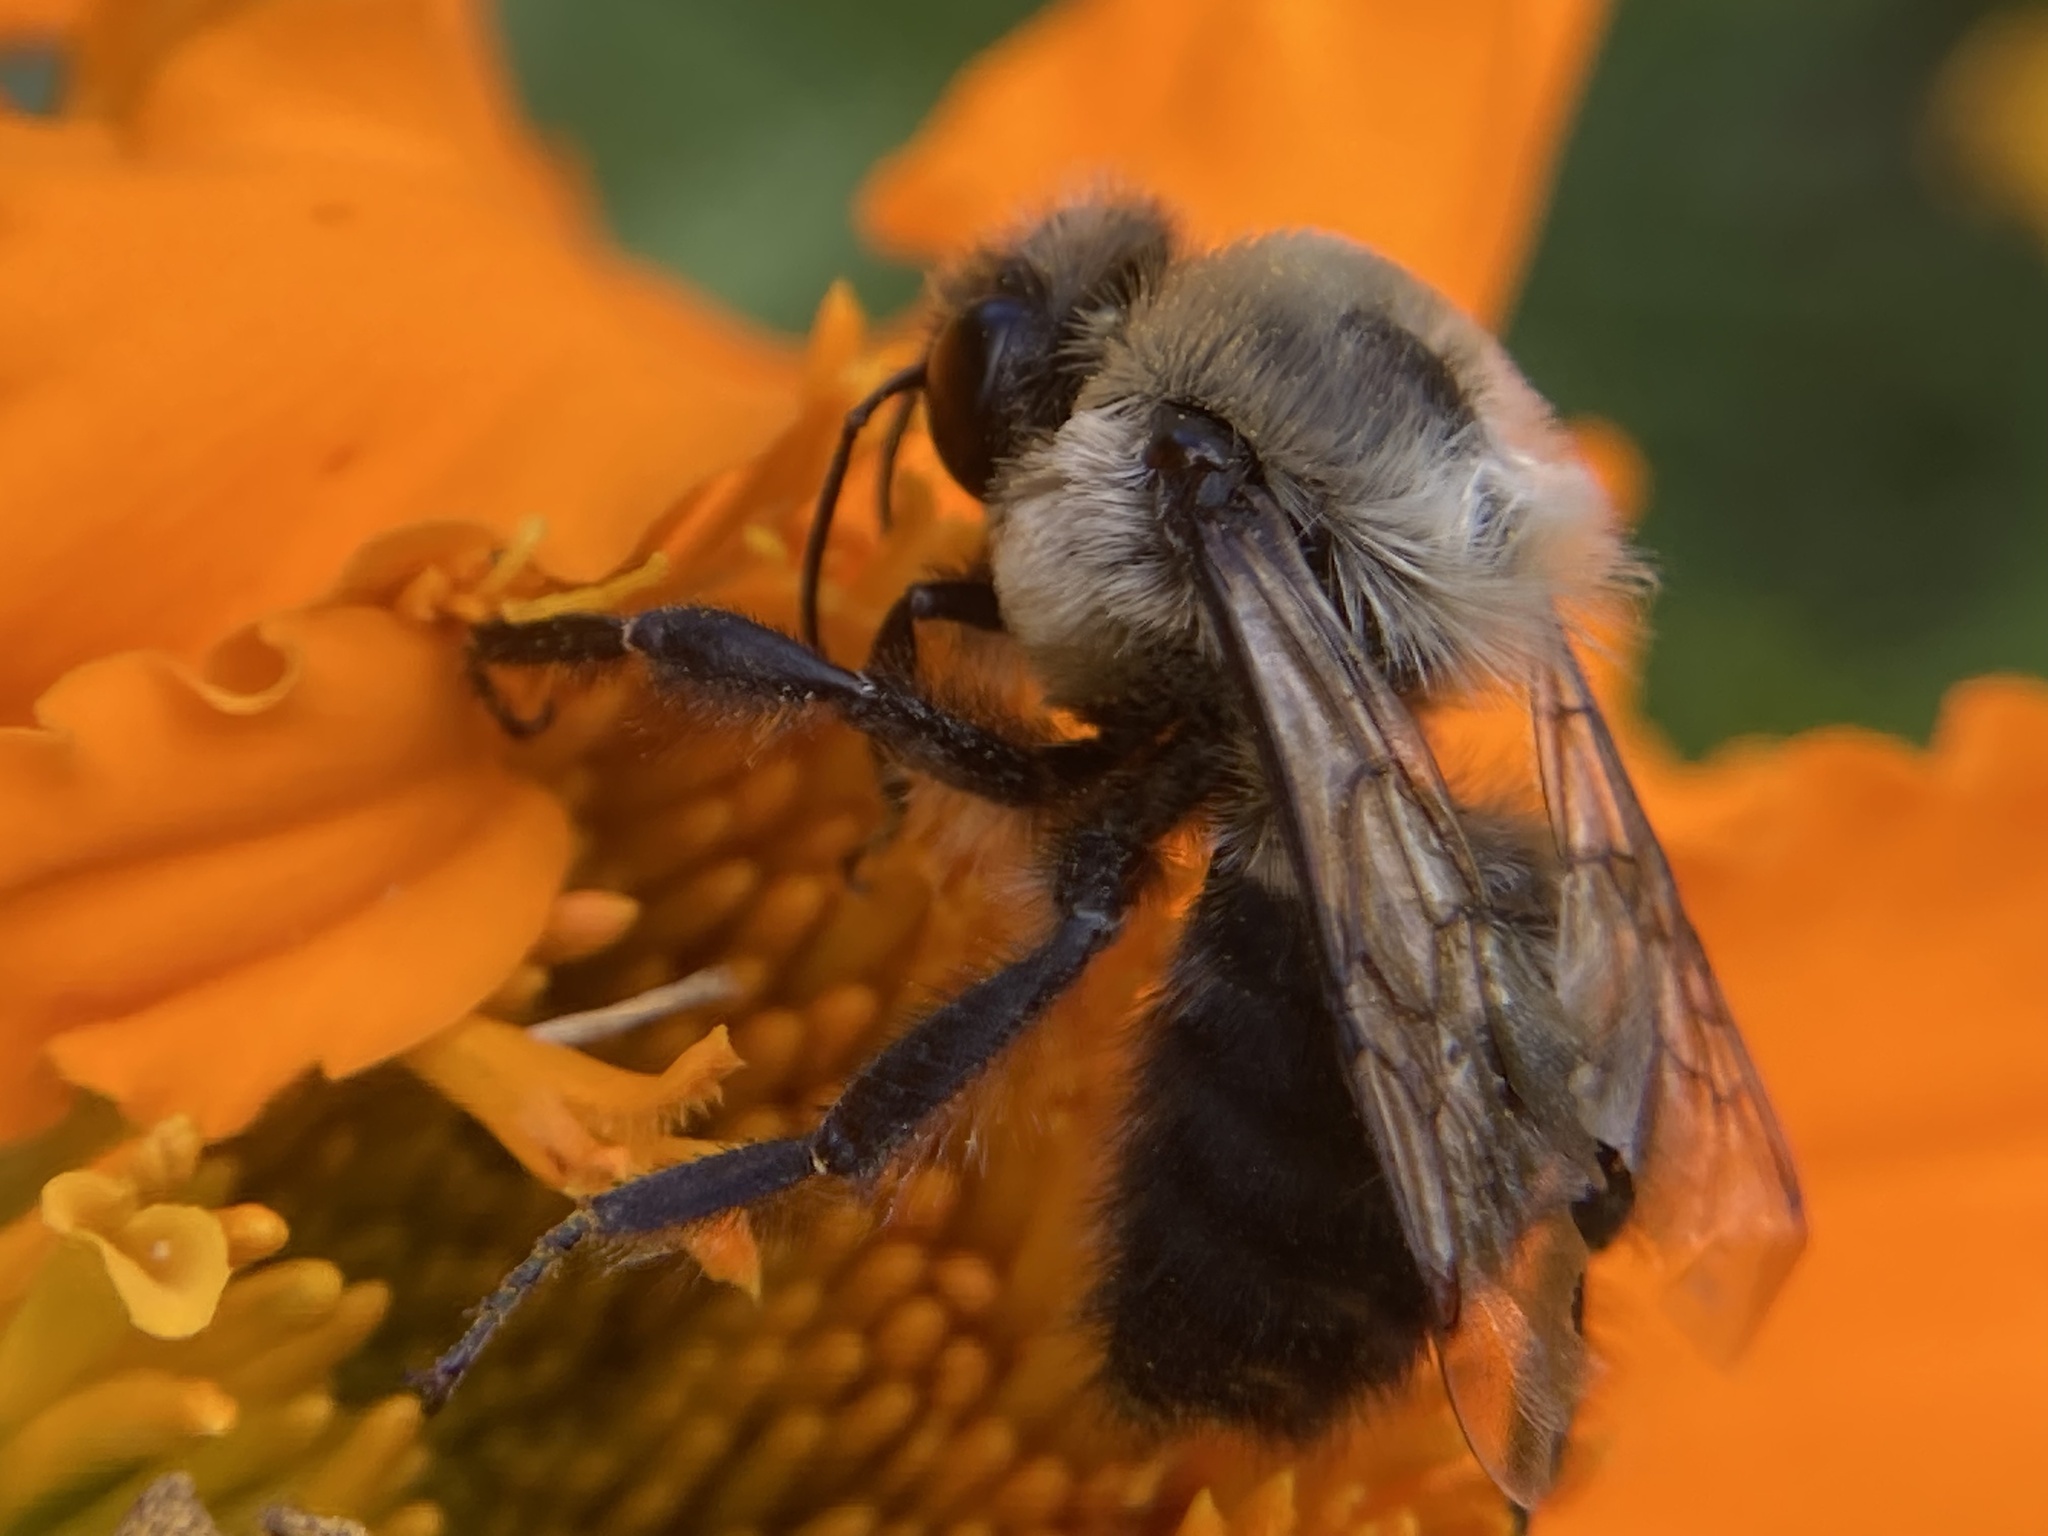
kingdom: Animalia
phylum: Arthropoda
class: Insecta
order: Hymenoptera
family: Apidae
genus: Bombus
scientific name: Bombus griseocollis
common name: Brown-belted bumble bee
